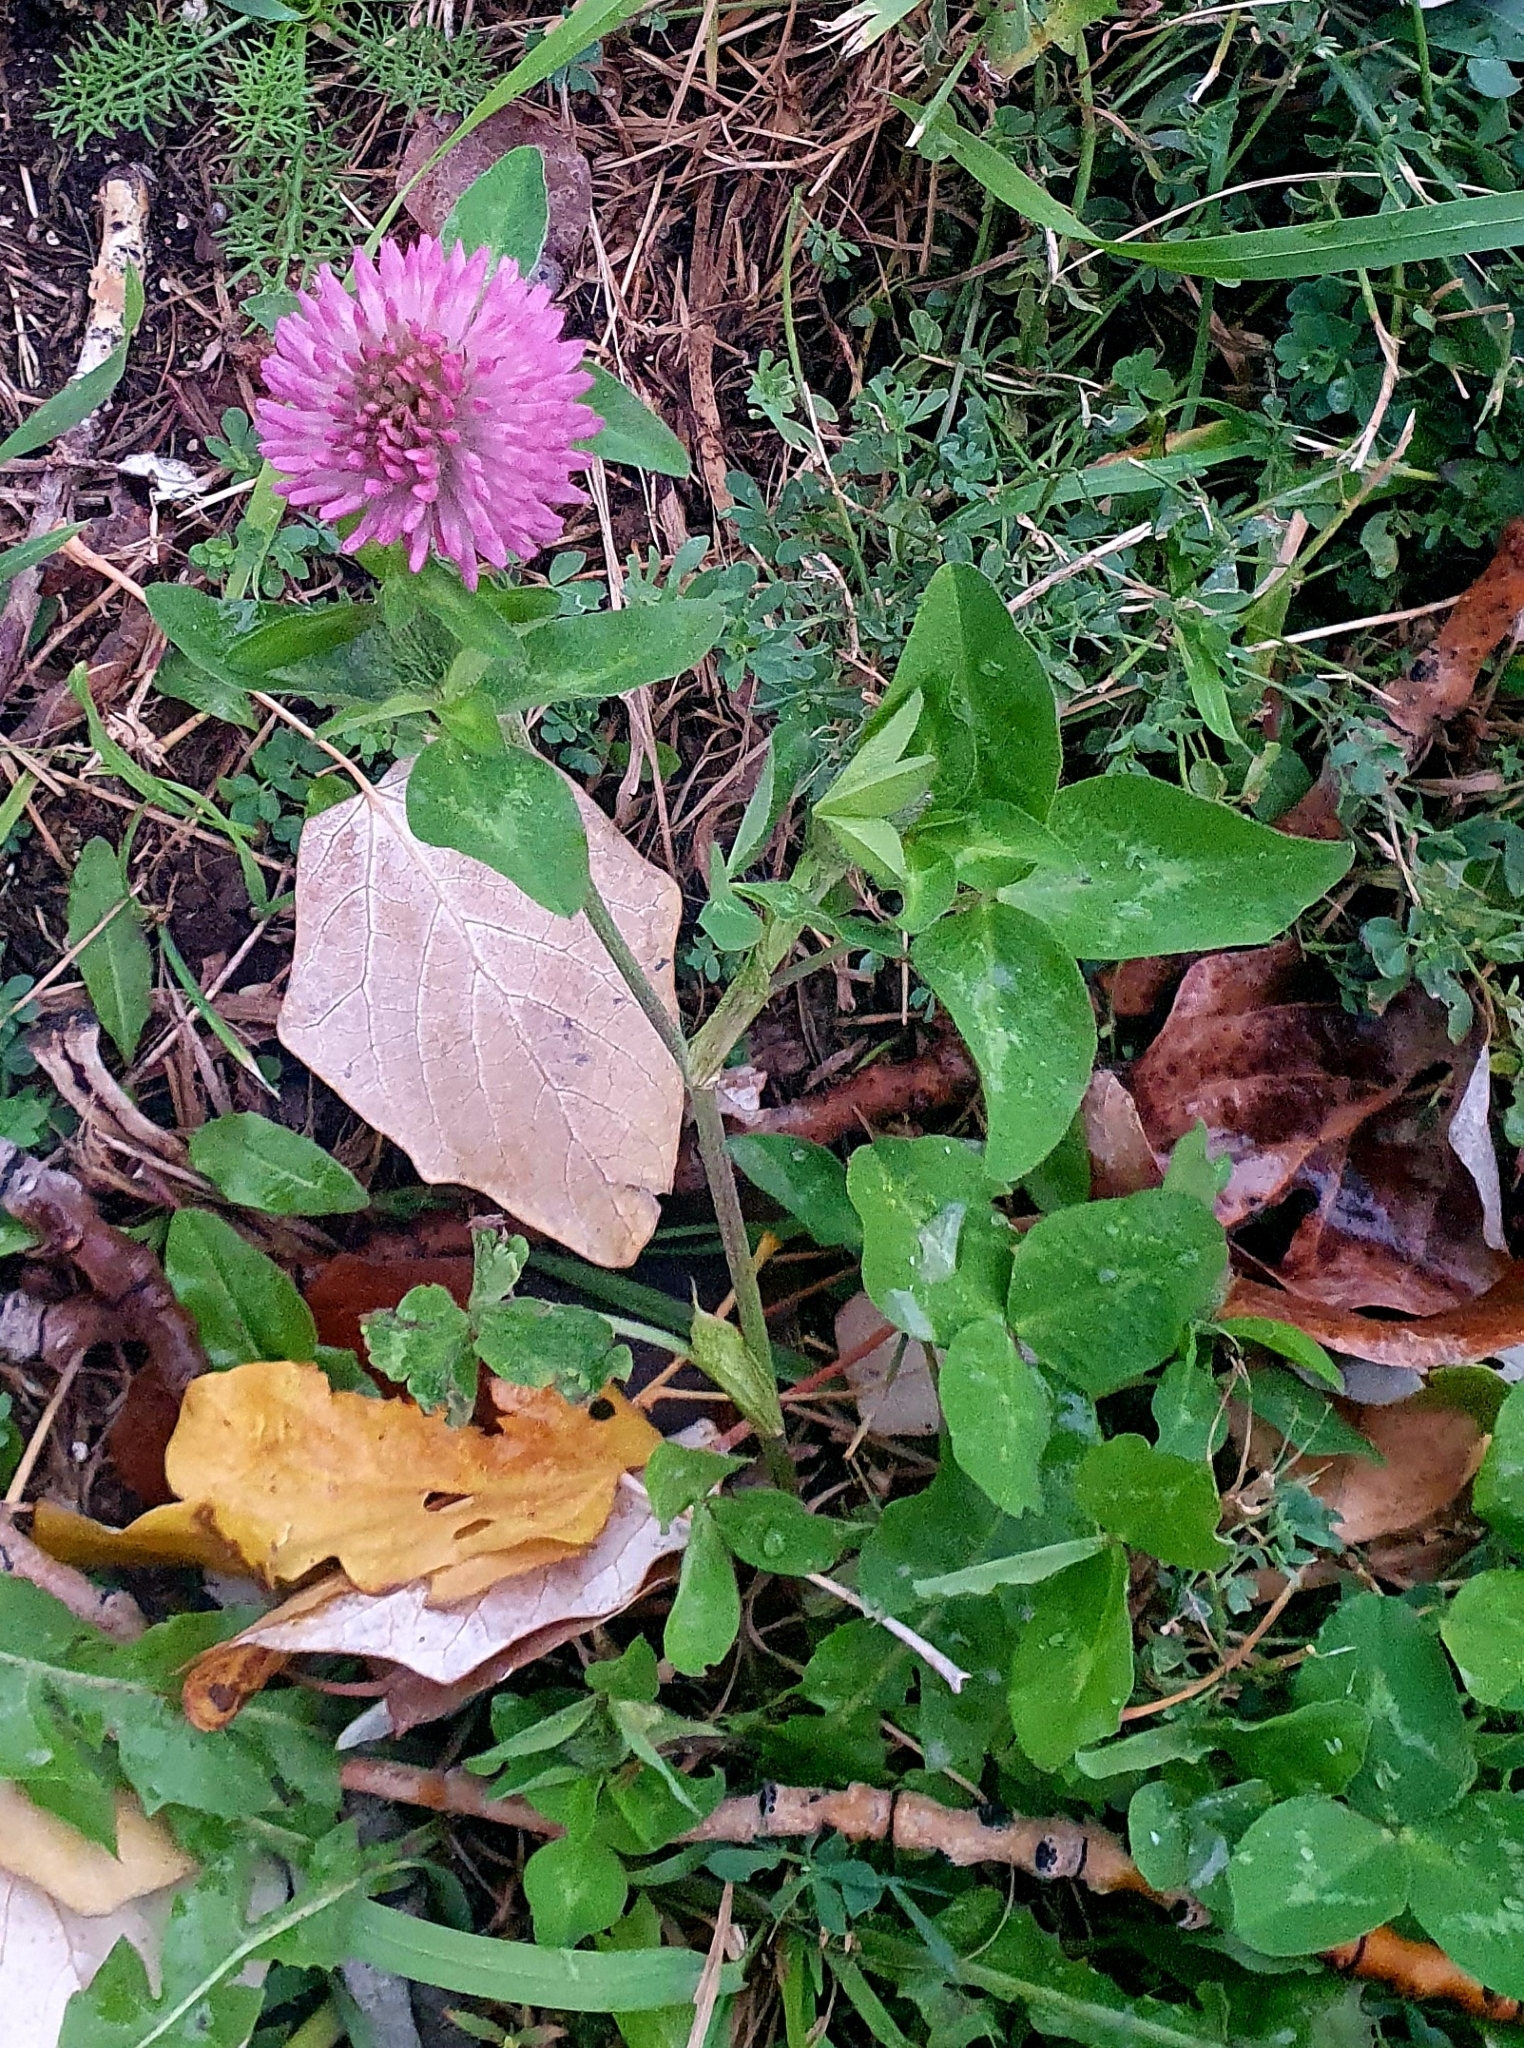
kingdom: Plantae
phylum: Tracheophyta
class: Magnoliopsida
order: Fabales
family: Fabaceae
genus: Trifolium
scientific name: Trifolium pratense
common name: Red clover
